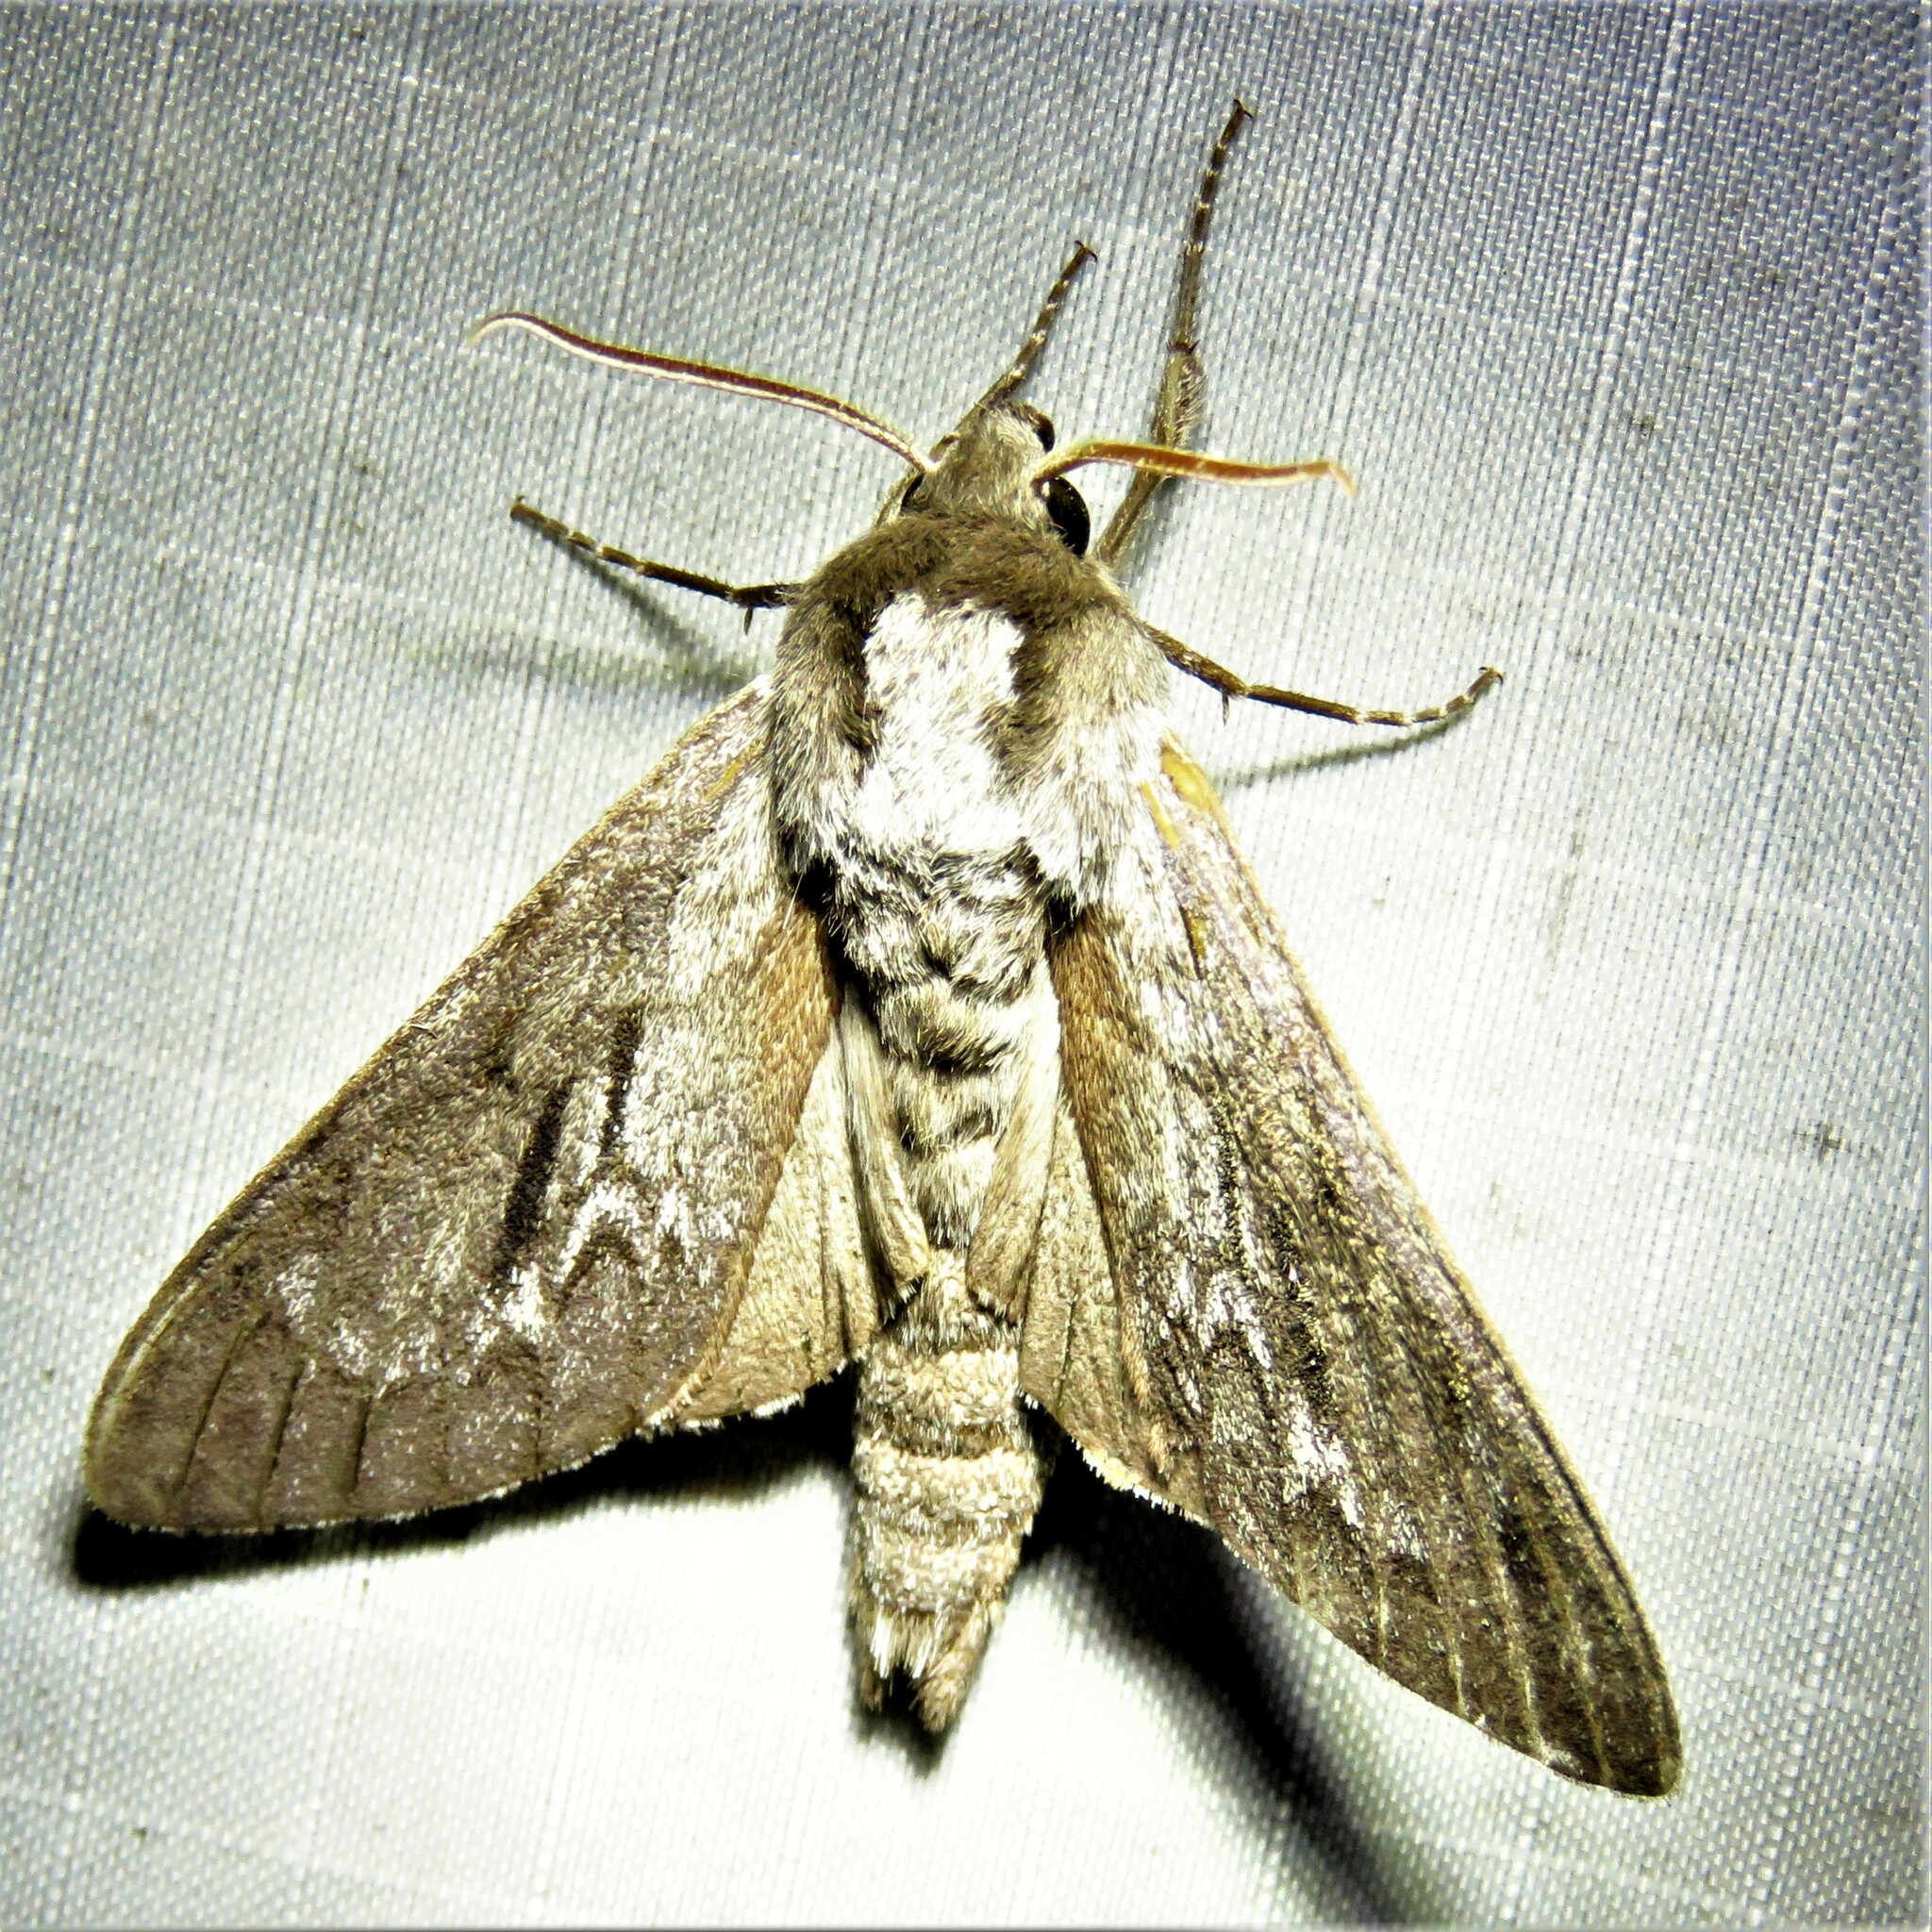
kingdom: Animalia
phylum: Arthropoda
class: Insecta
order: Lepidoptera
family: Sphingidae
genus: Lapara
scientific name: Lapara coniferarum
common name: Southern pine sphinx
